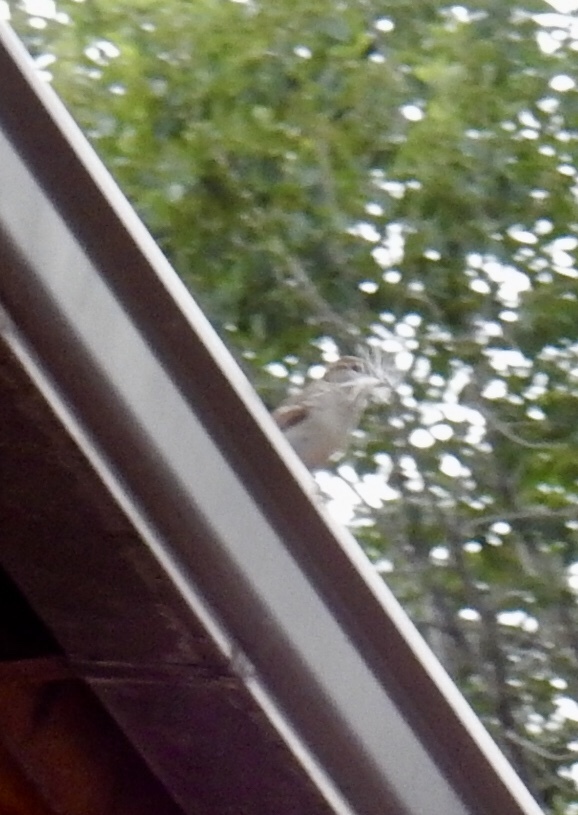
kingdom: Animalia
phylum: Chordata
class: Aves
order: Passeriformes
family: Passeridae
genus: Passer
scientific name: Passer domesticus
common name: House sparrow
